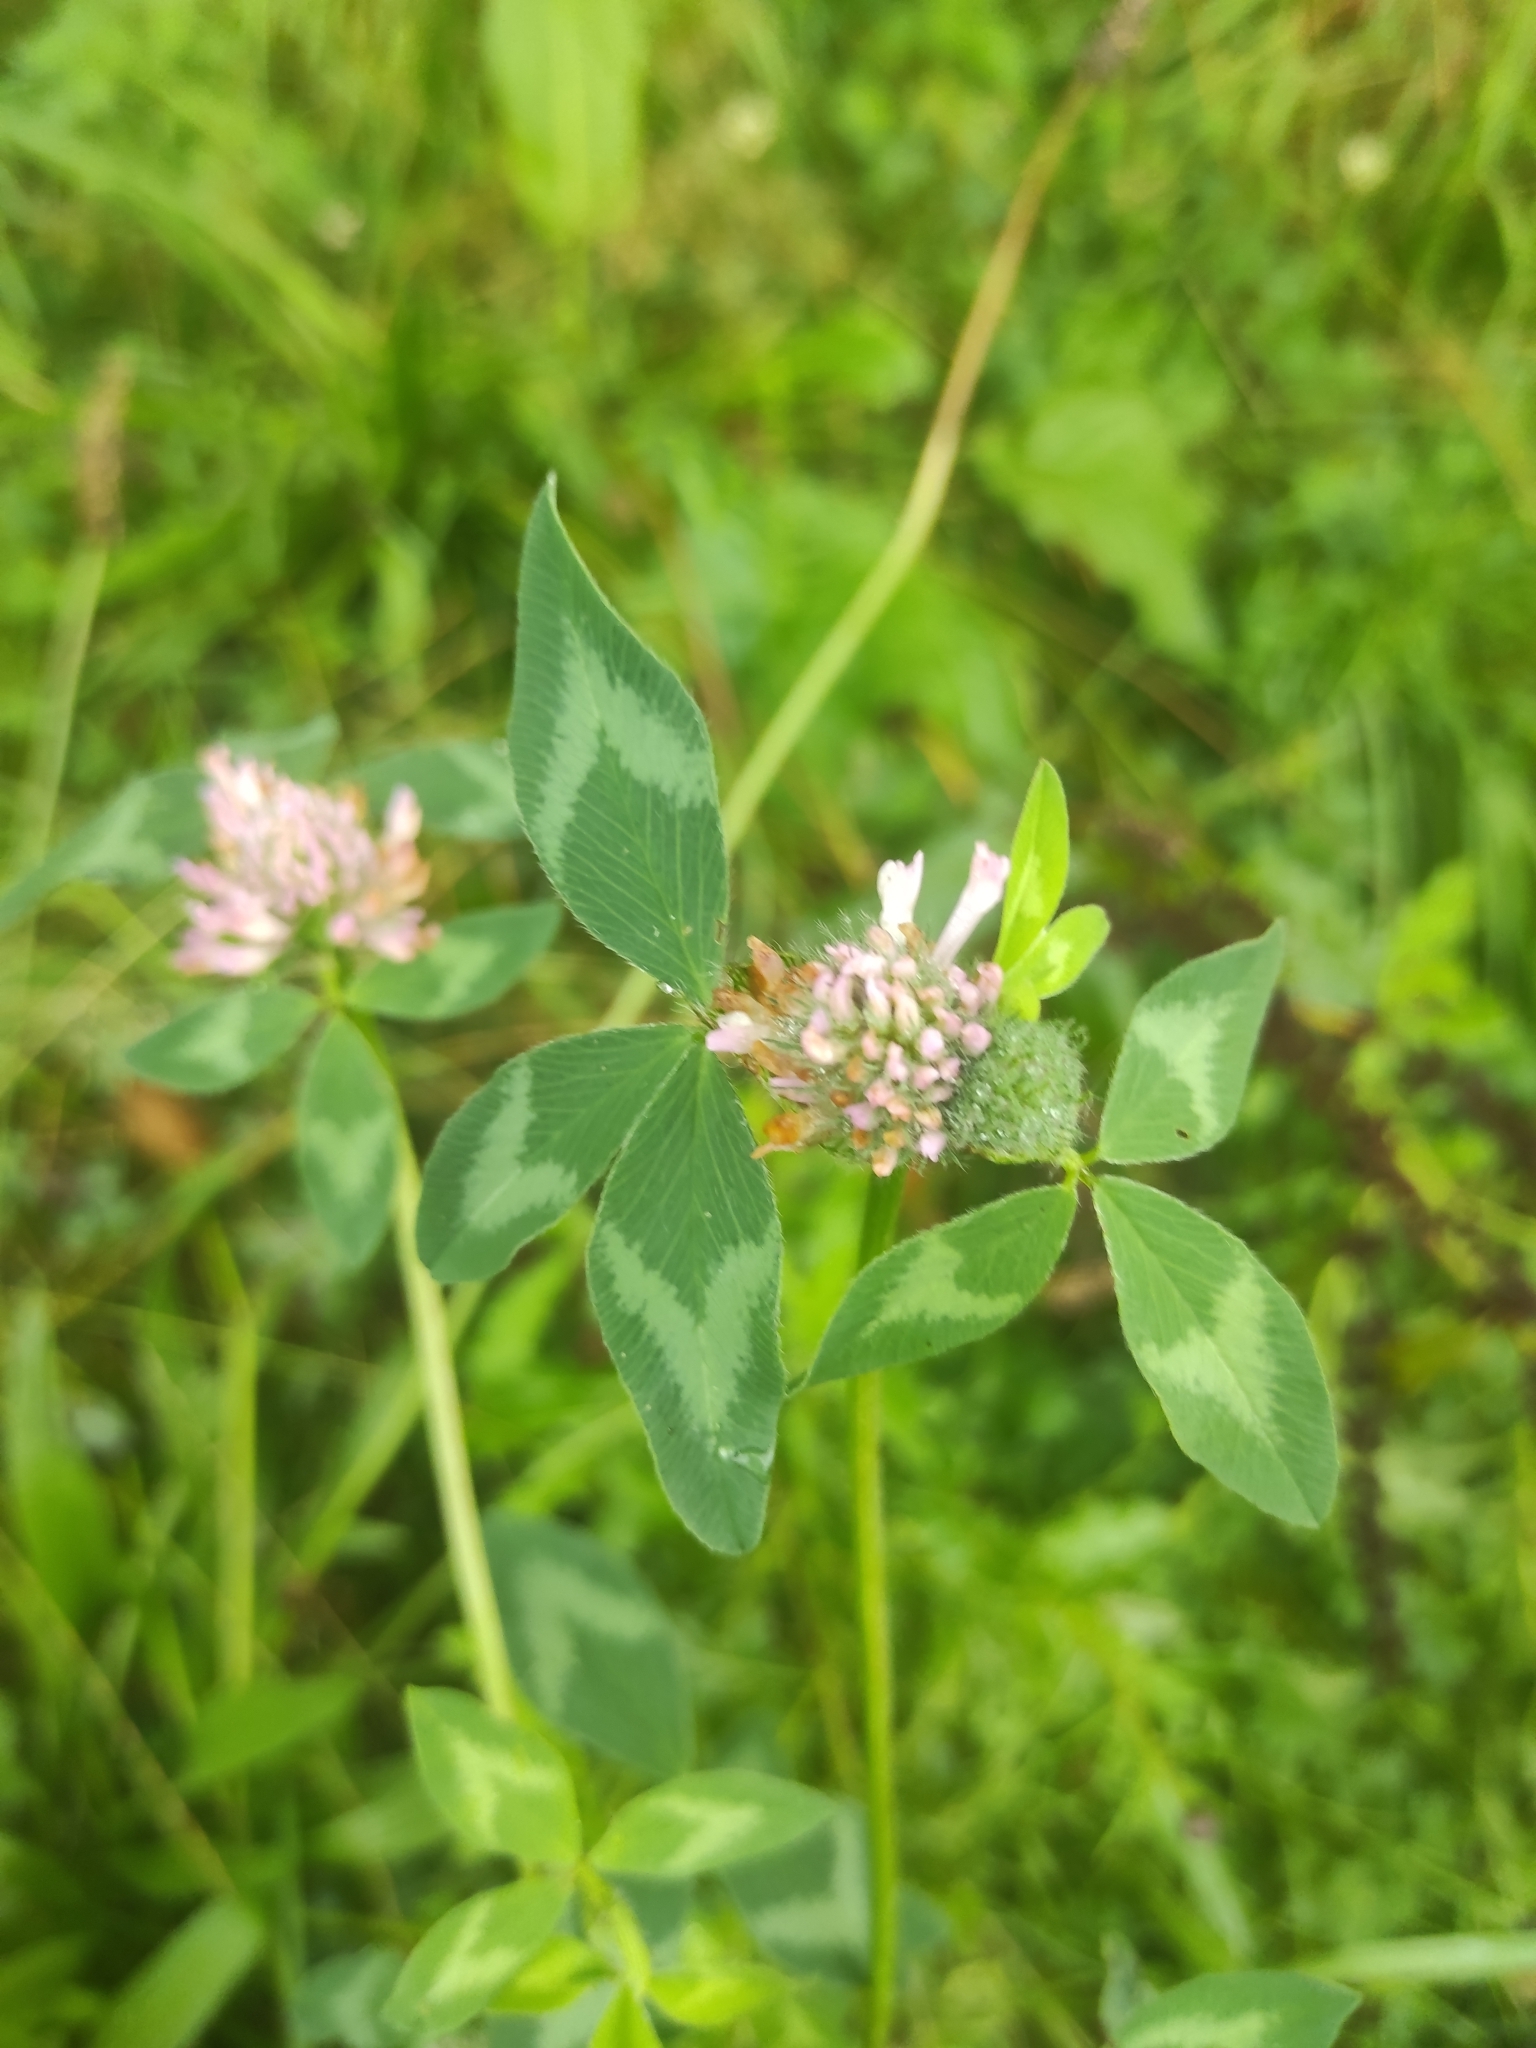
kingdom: Plantae
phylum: Tracheophyta
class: Magnoliopsida
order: Fabales
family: Fabaceae
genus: Trifolium
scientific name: Trifolium pratense
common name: Red clover
